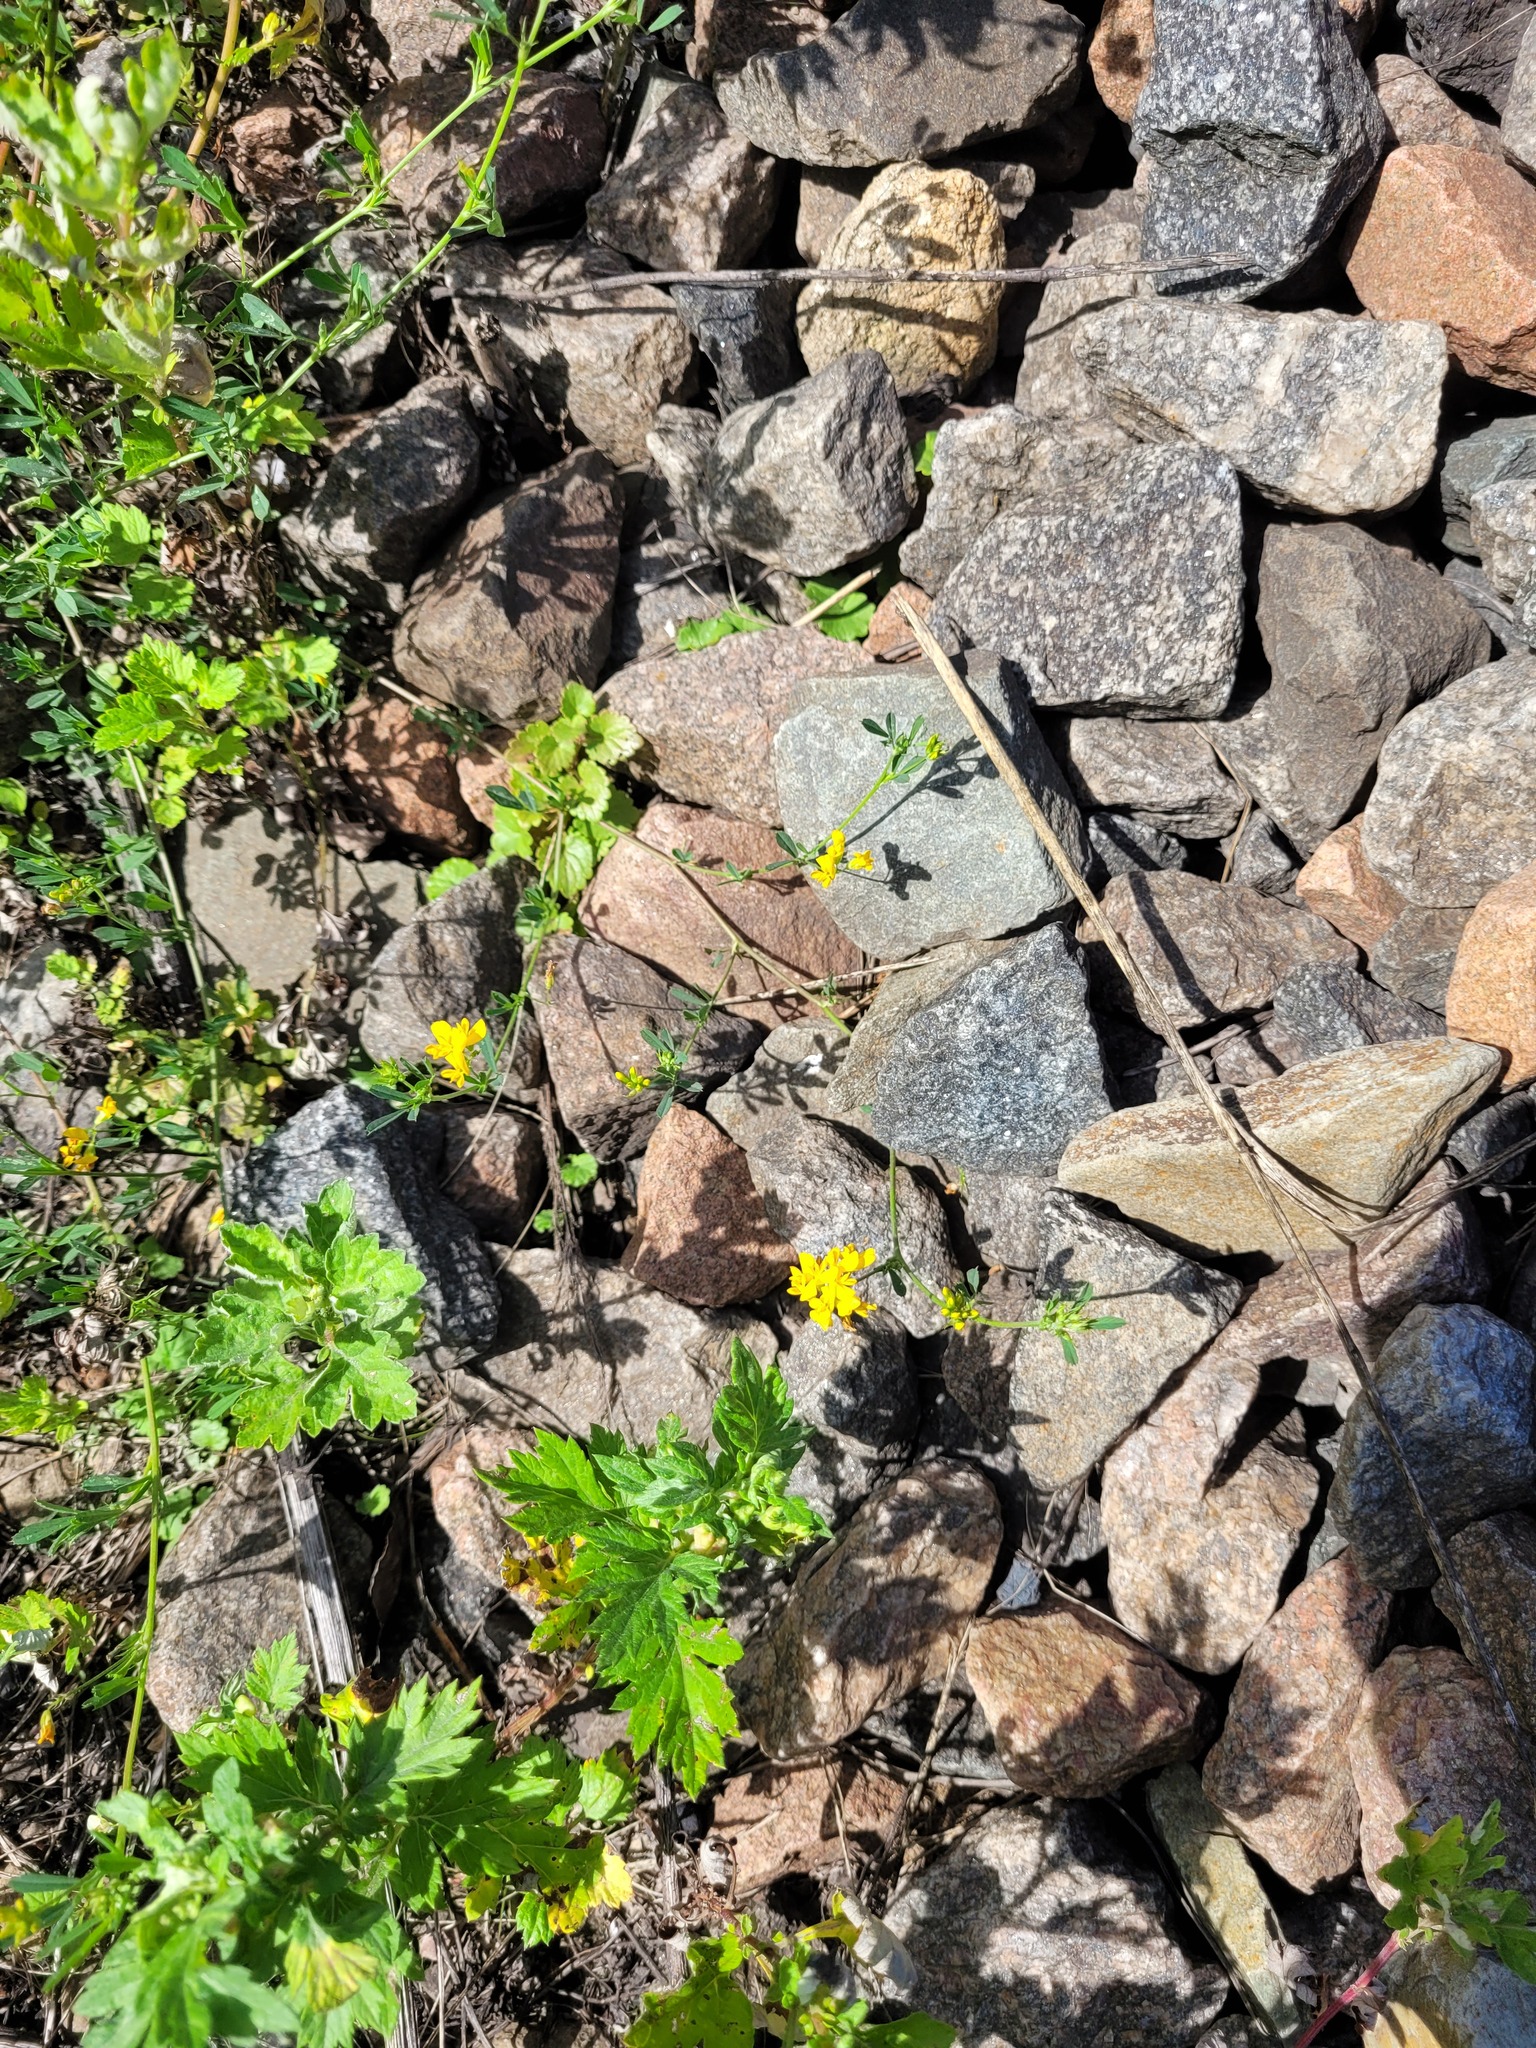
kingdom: Plantae
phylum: Tracheophyta
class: Magnoliopsida
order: Fabales
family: Fabaceae
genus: Medicago
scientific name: Medicago falcata
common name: Sickle medick
